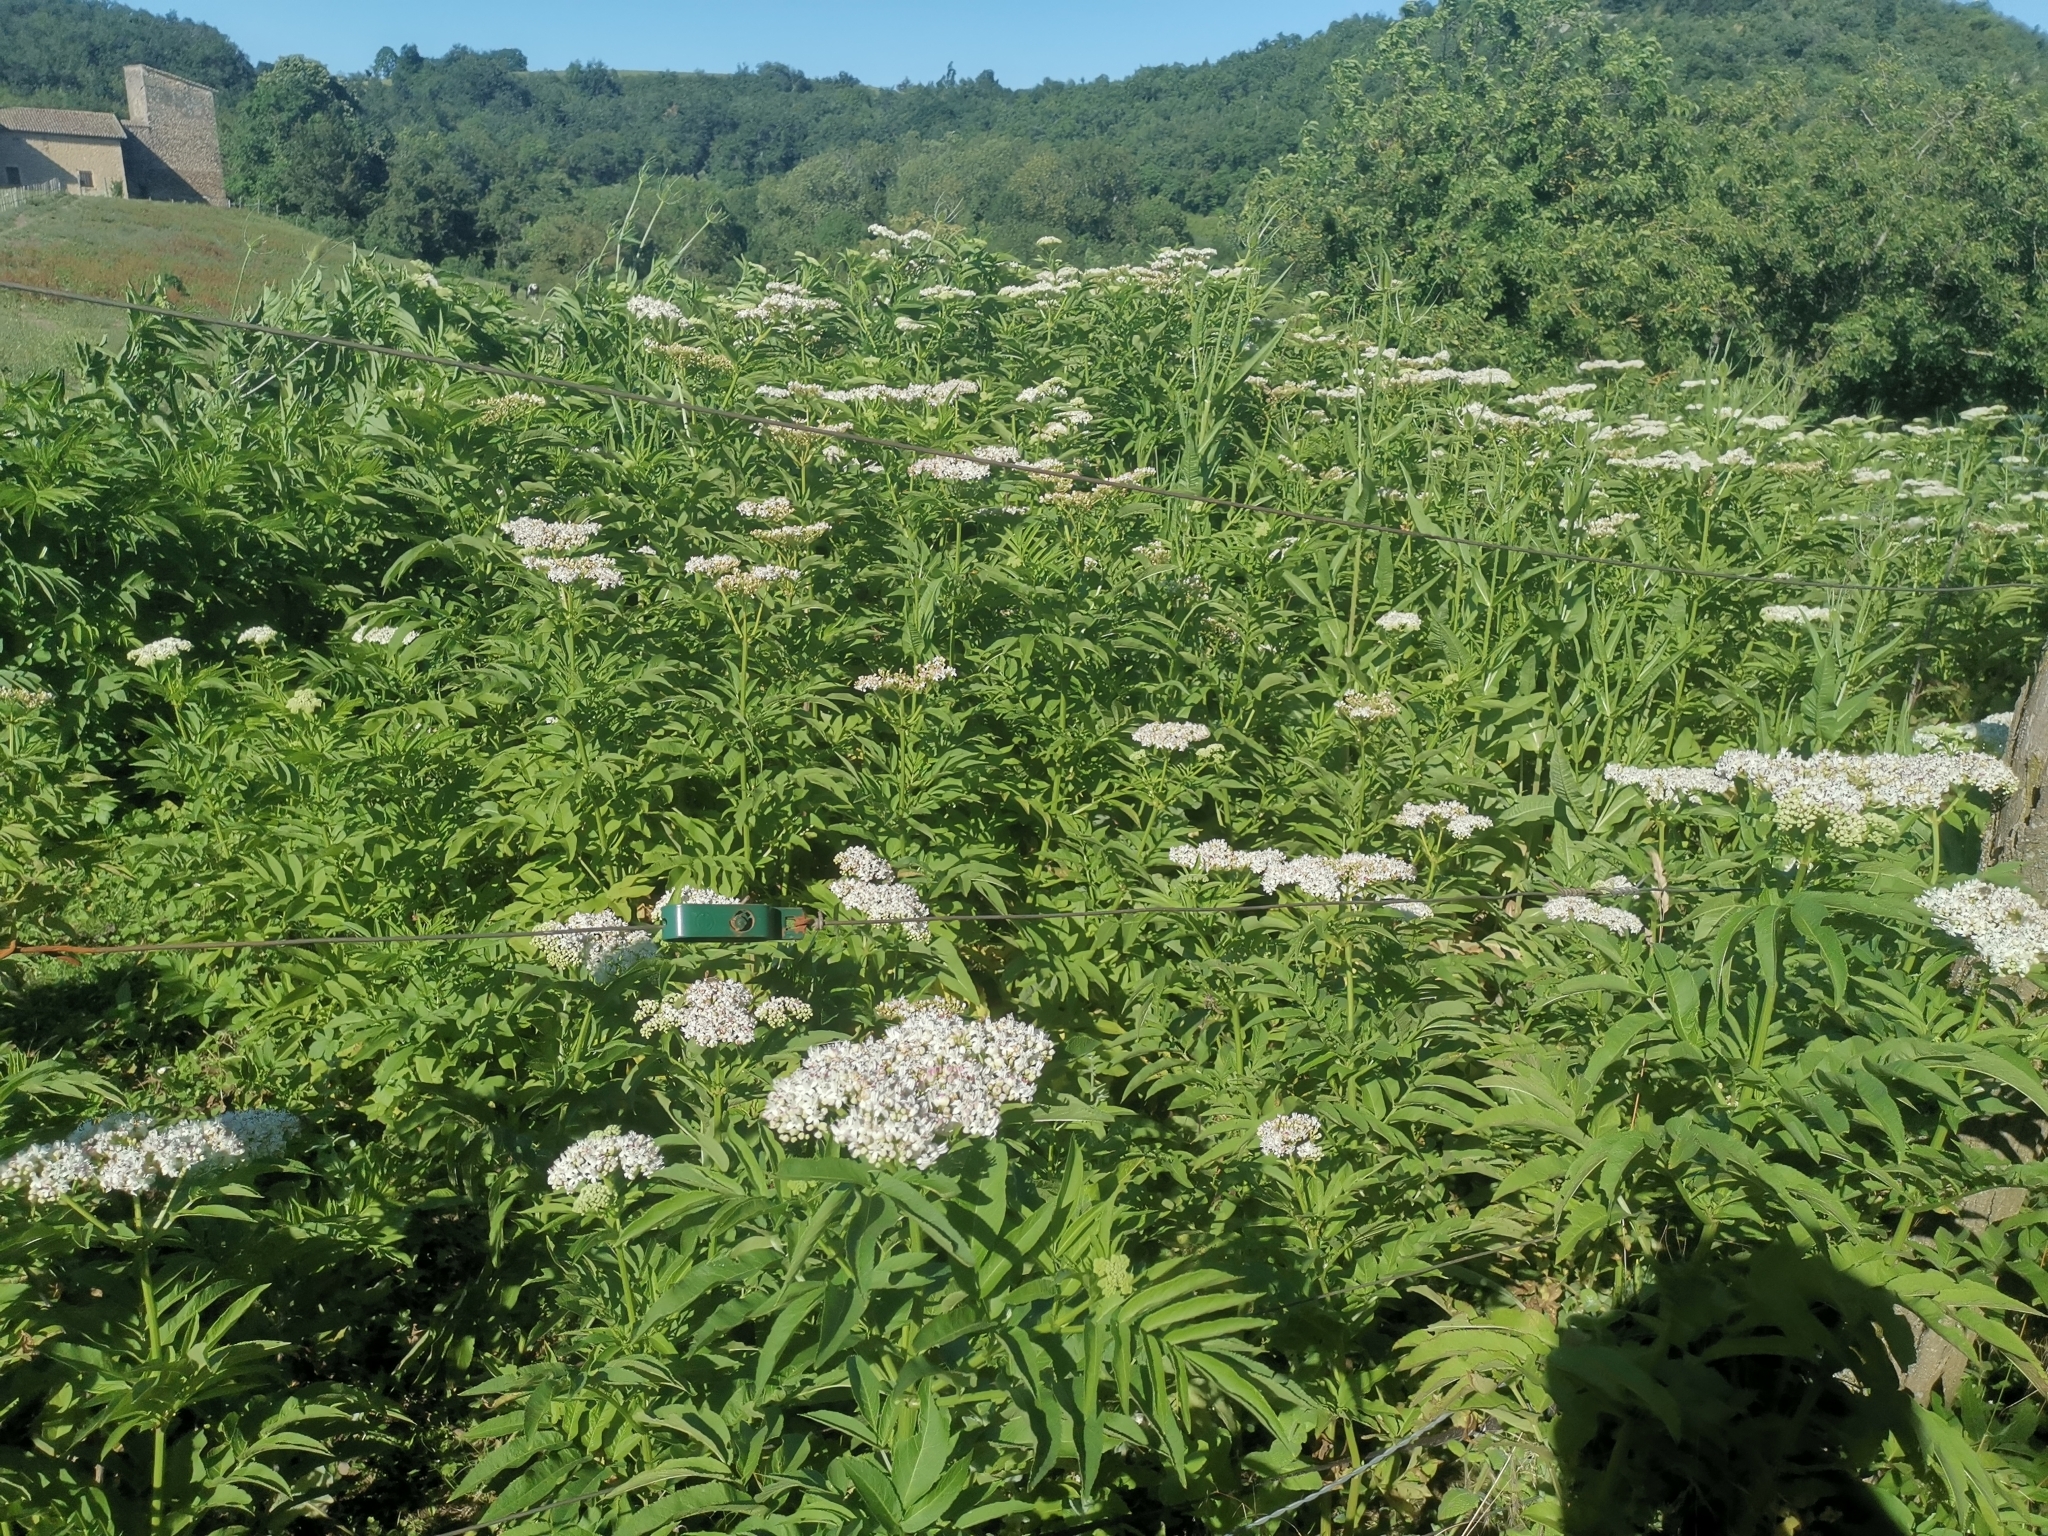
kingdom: Plantae
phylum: Tracheophyta
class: Magnoliopsida
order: Dipsacales
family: Viburnaceae
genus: Sambucus
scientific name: Sambucus ebulus
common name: Dwarf elder
